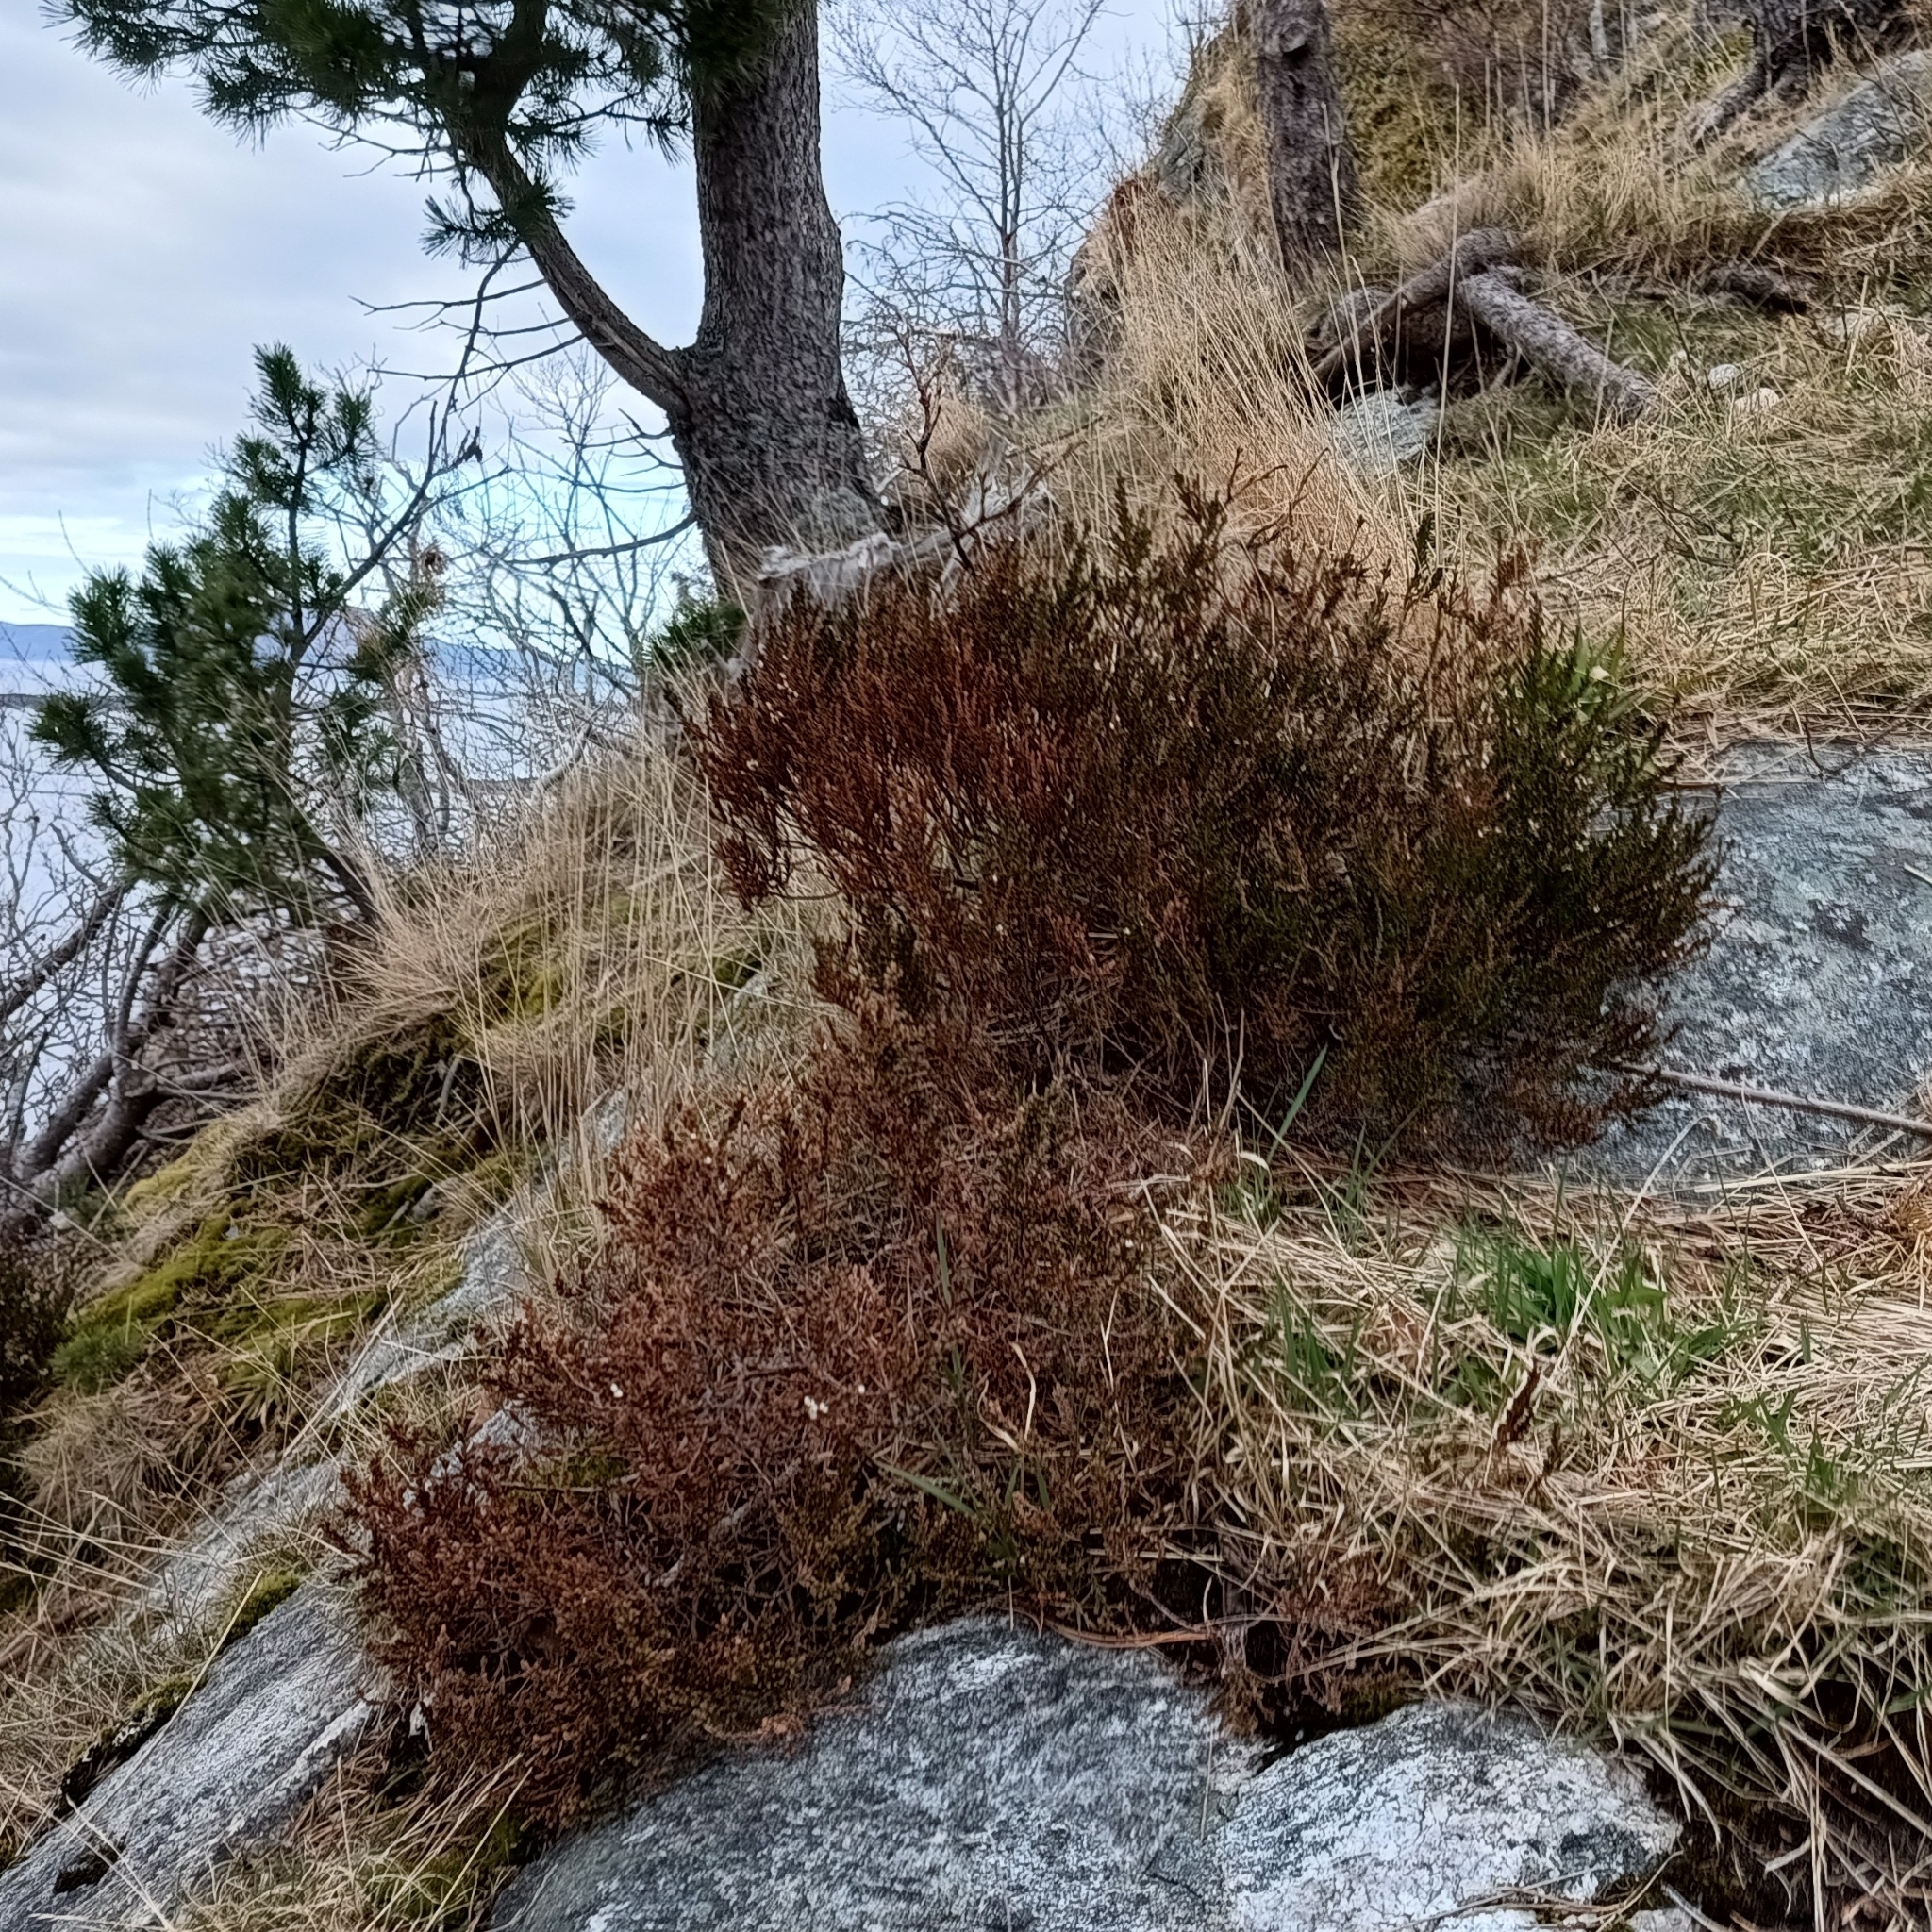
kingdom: Plantae
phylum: Tracheophyta
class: Magnoliopsida
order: Ericales
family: Ericaceae
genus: Calluna
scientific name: Calluna vulgaris
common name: Heather
